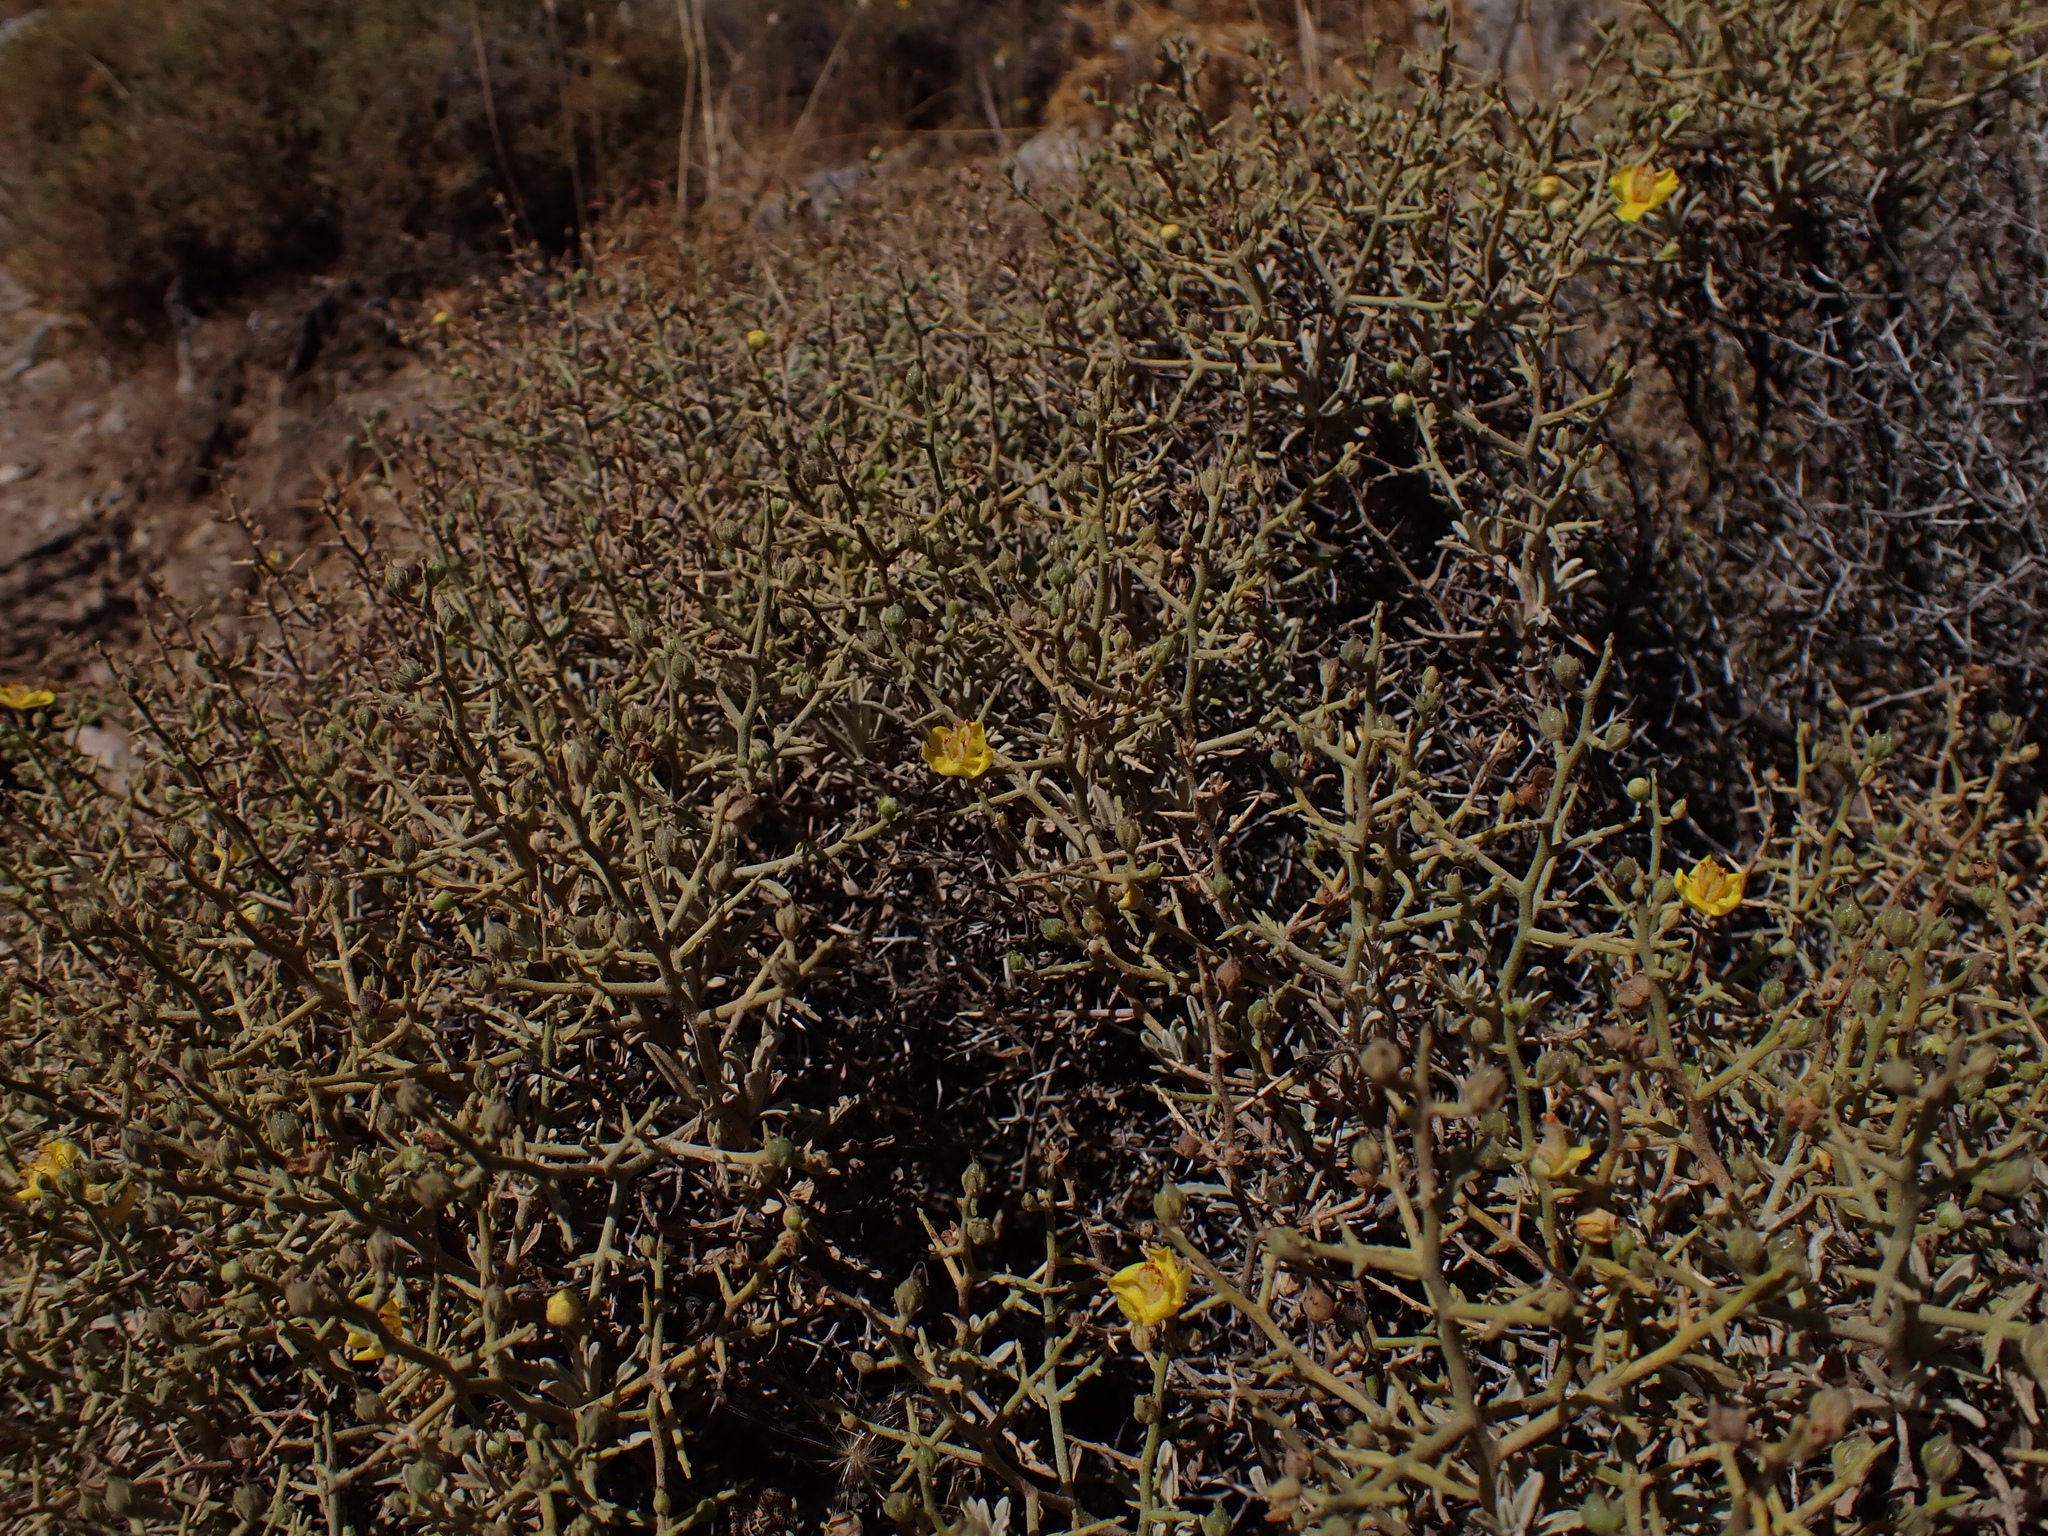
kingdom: Plantae
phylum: Tracheophyta
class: Magnoliopsida
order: Lamiales
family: Scrophulariaceae
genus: Verbascum
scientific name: Verbascum spinosum
